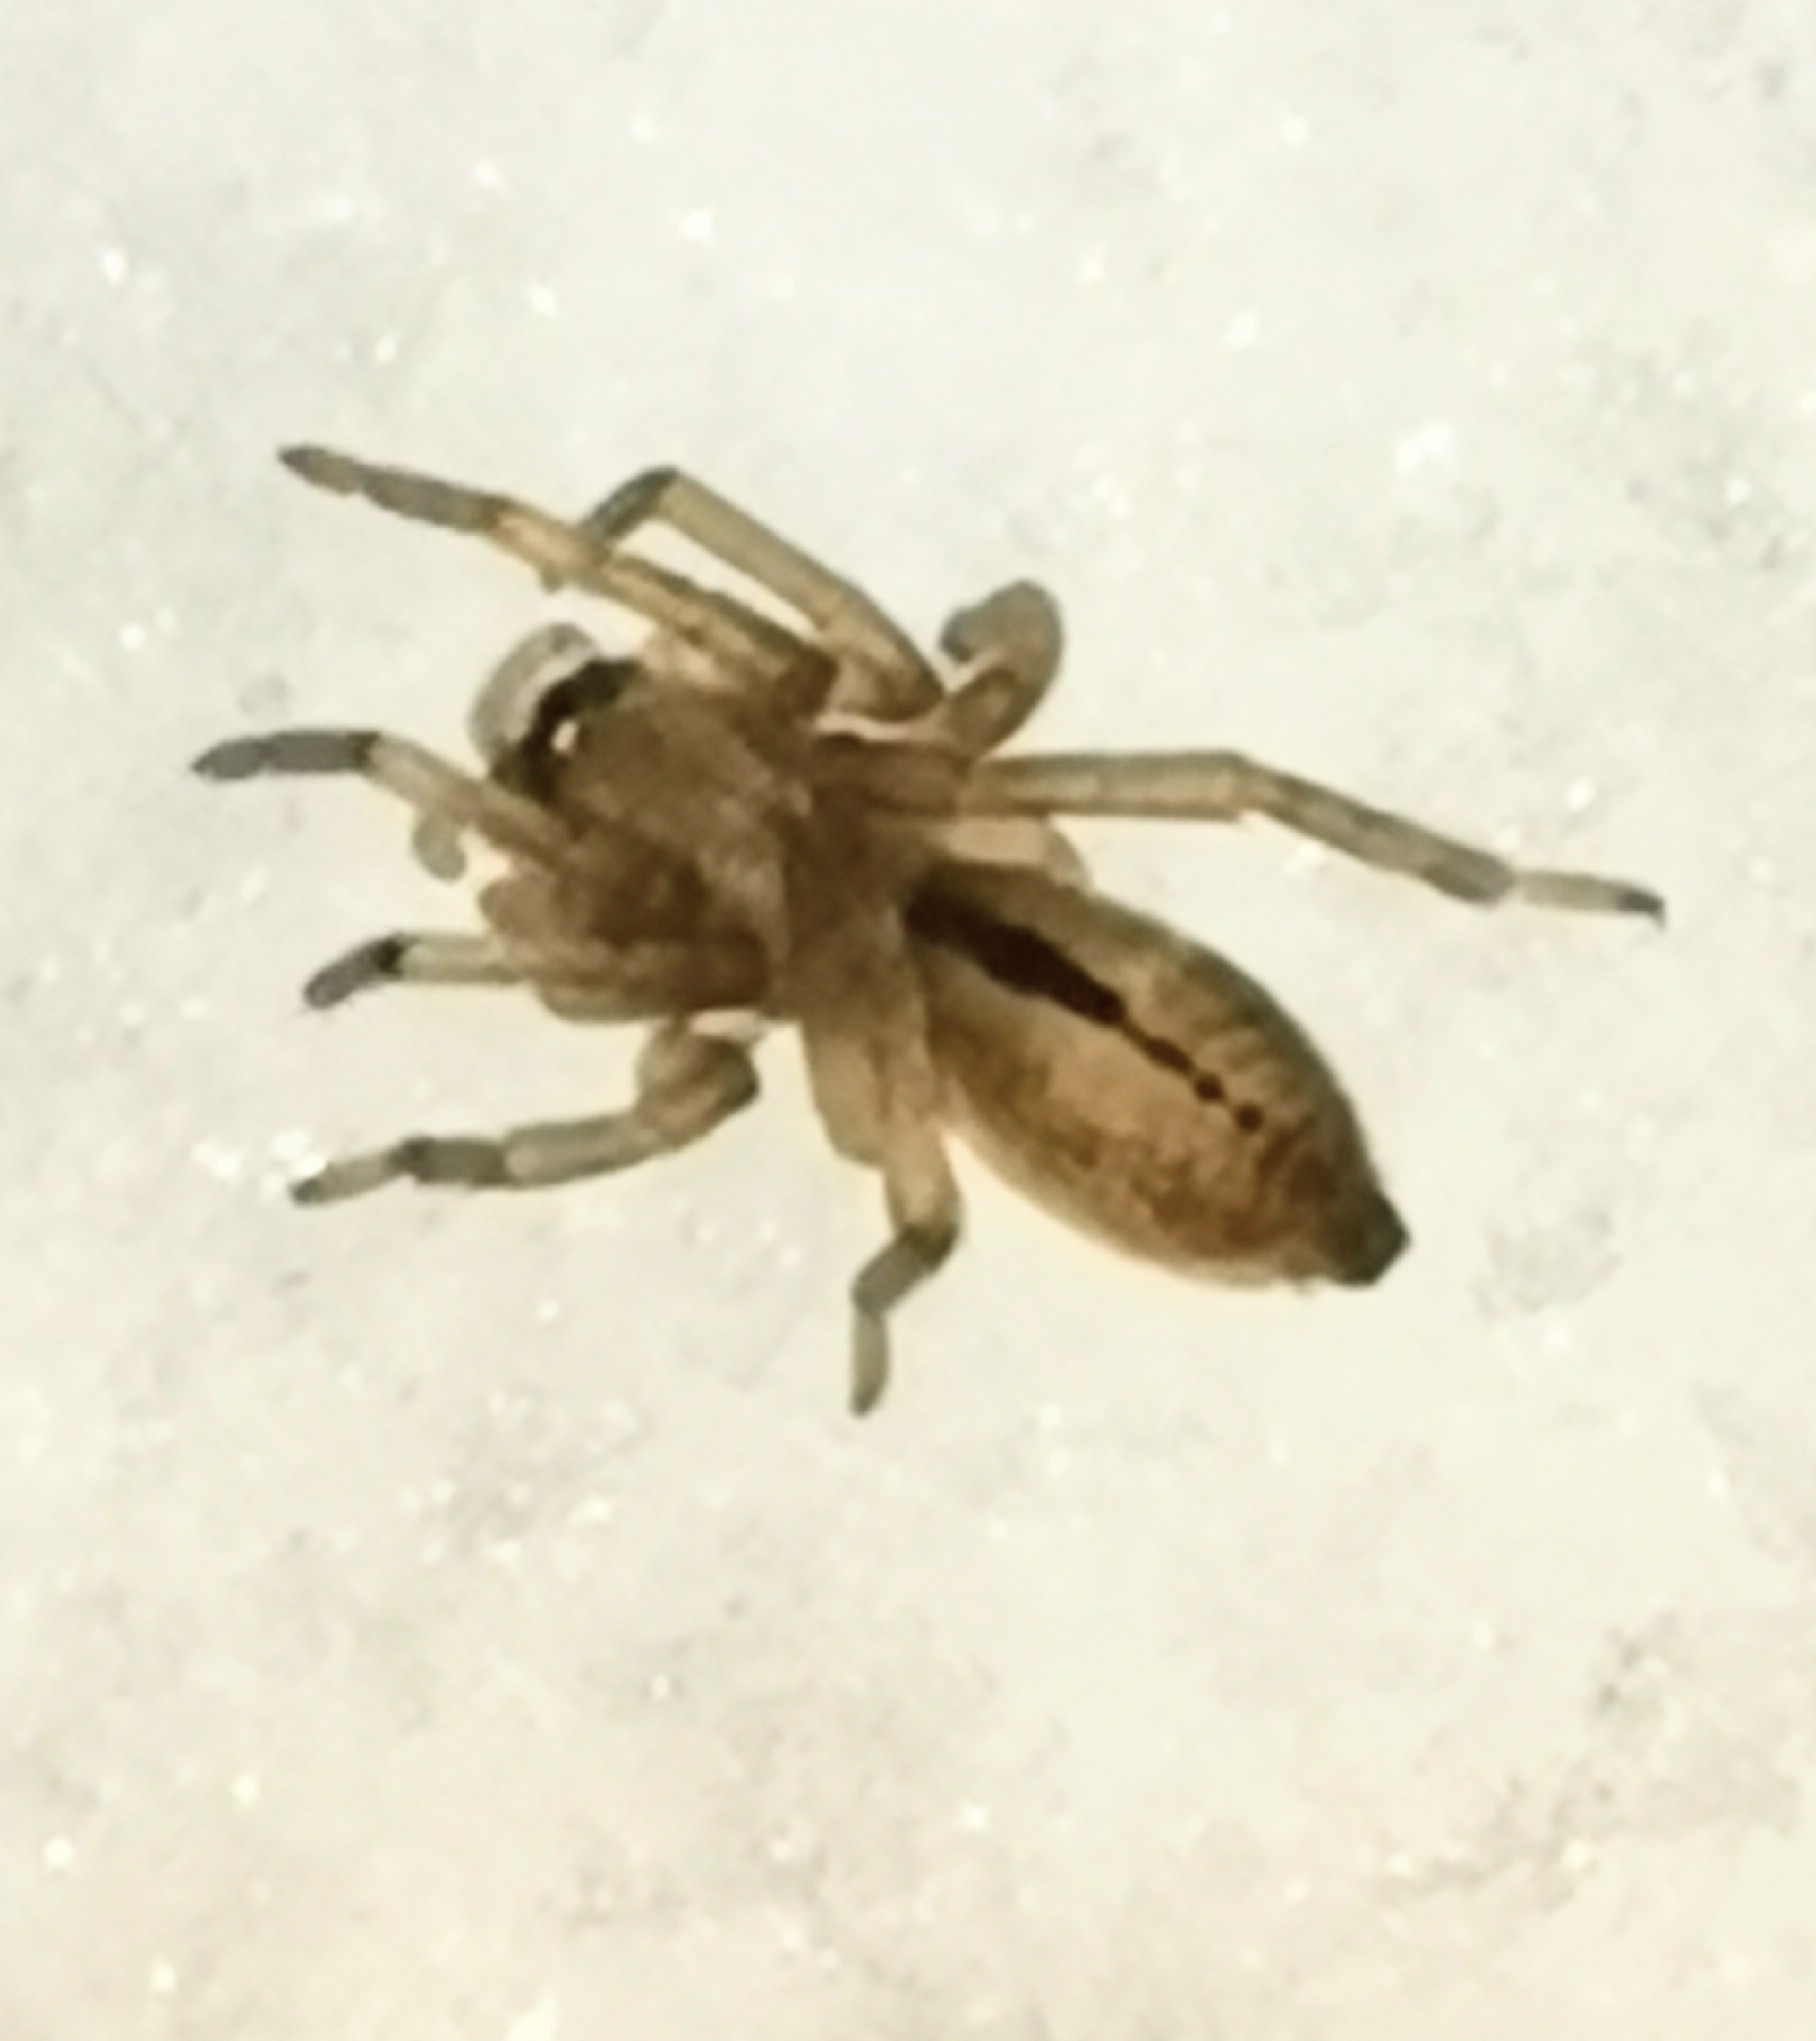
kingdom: Animalia
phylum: Arthropoda
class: Arachnida
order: Araneae
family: Clubionidae
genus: Clubiona
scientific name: Clubiona subsultans
